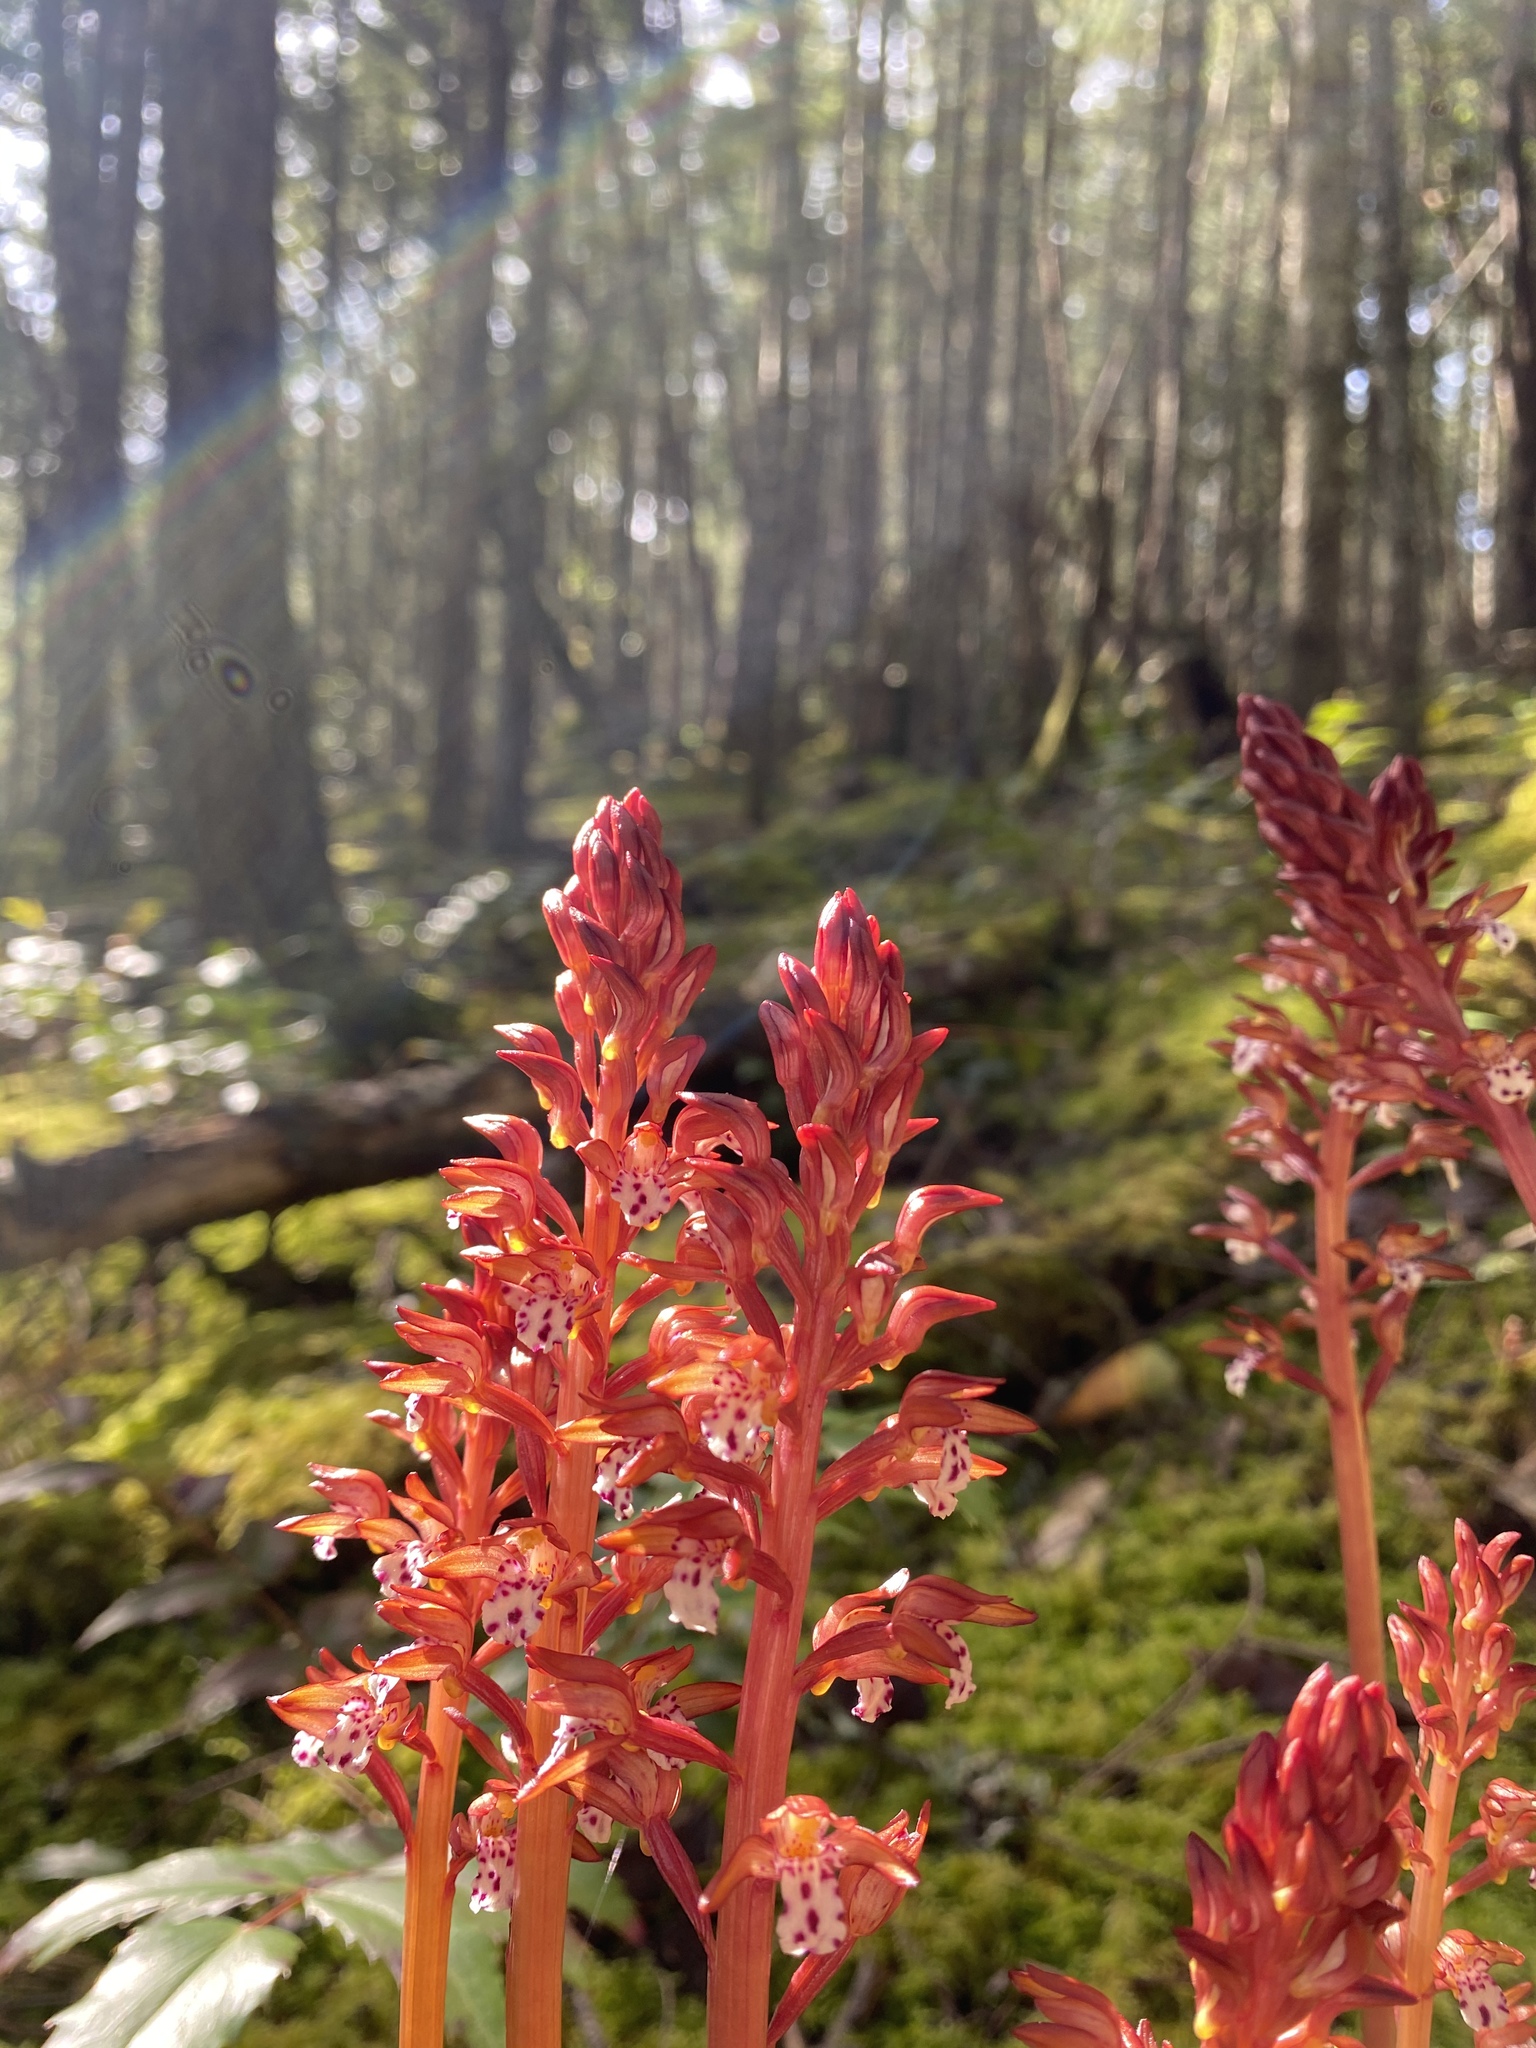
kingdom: Plantae
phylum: Tracheophyta
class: Liliopsida
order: Asparagales
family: Orchidaceae
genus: Corallorhiza
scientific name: Corallorhiza maculata
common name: Spotted coralroot
